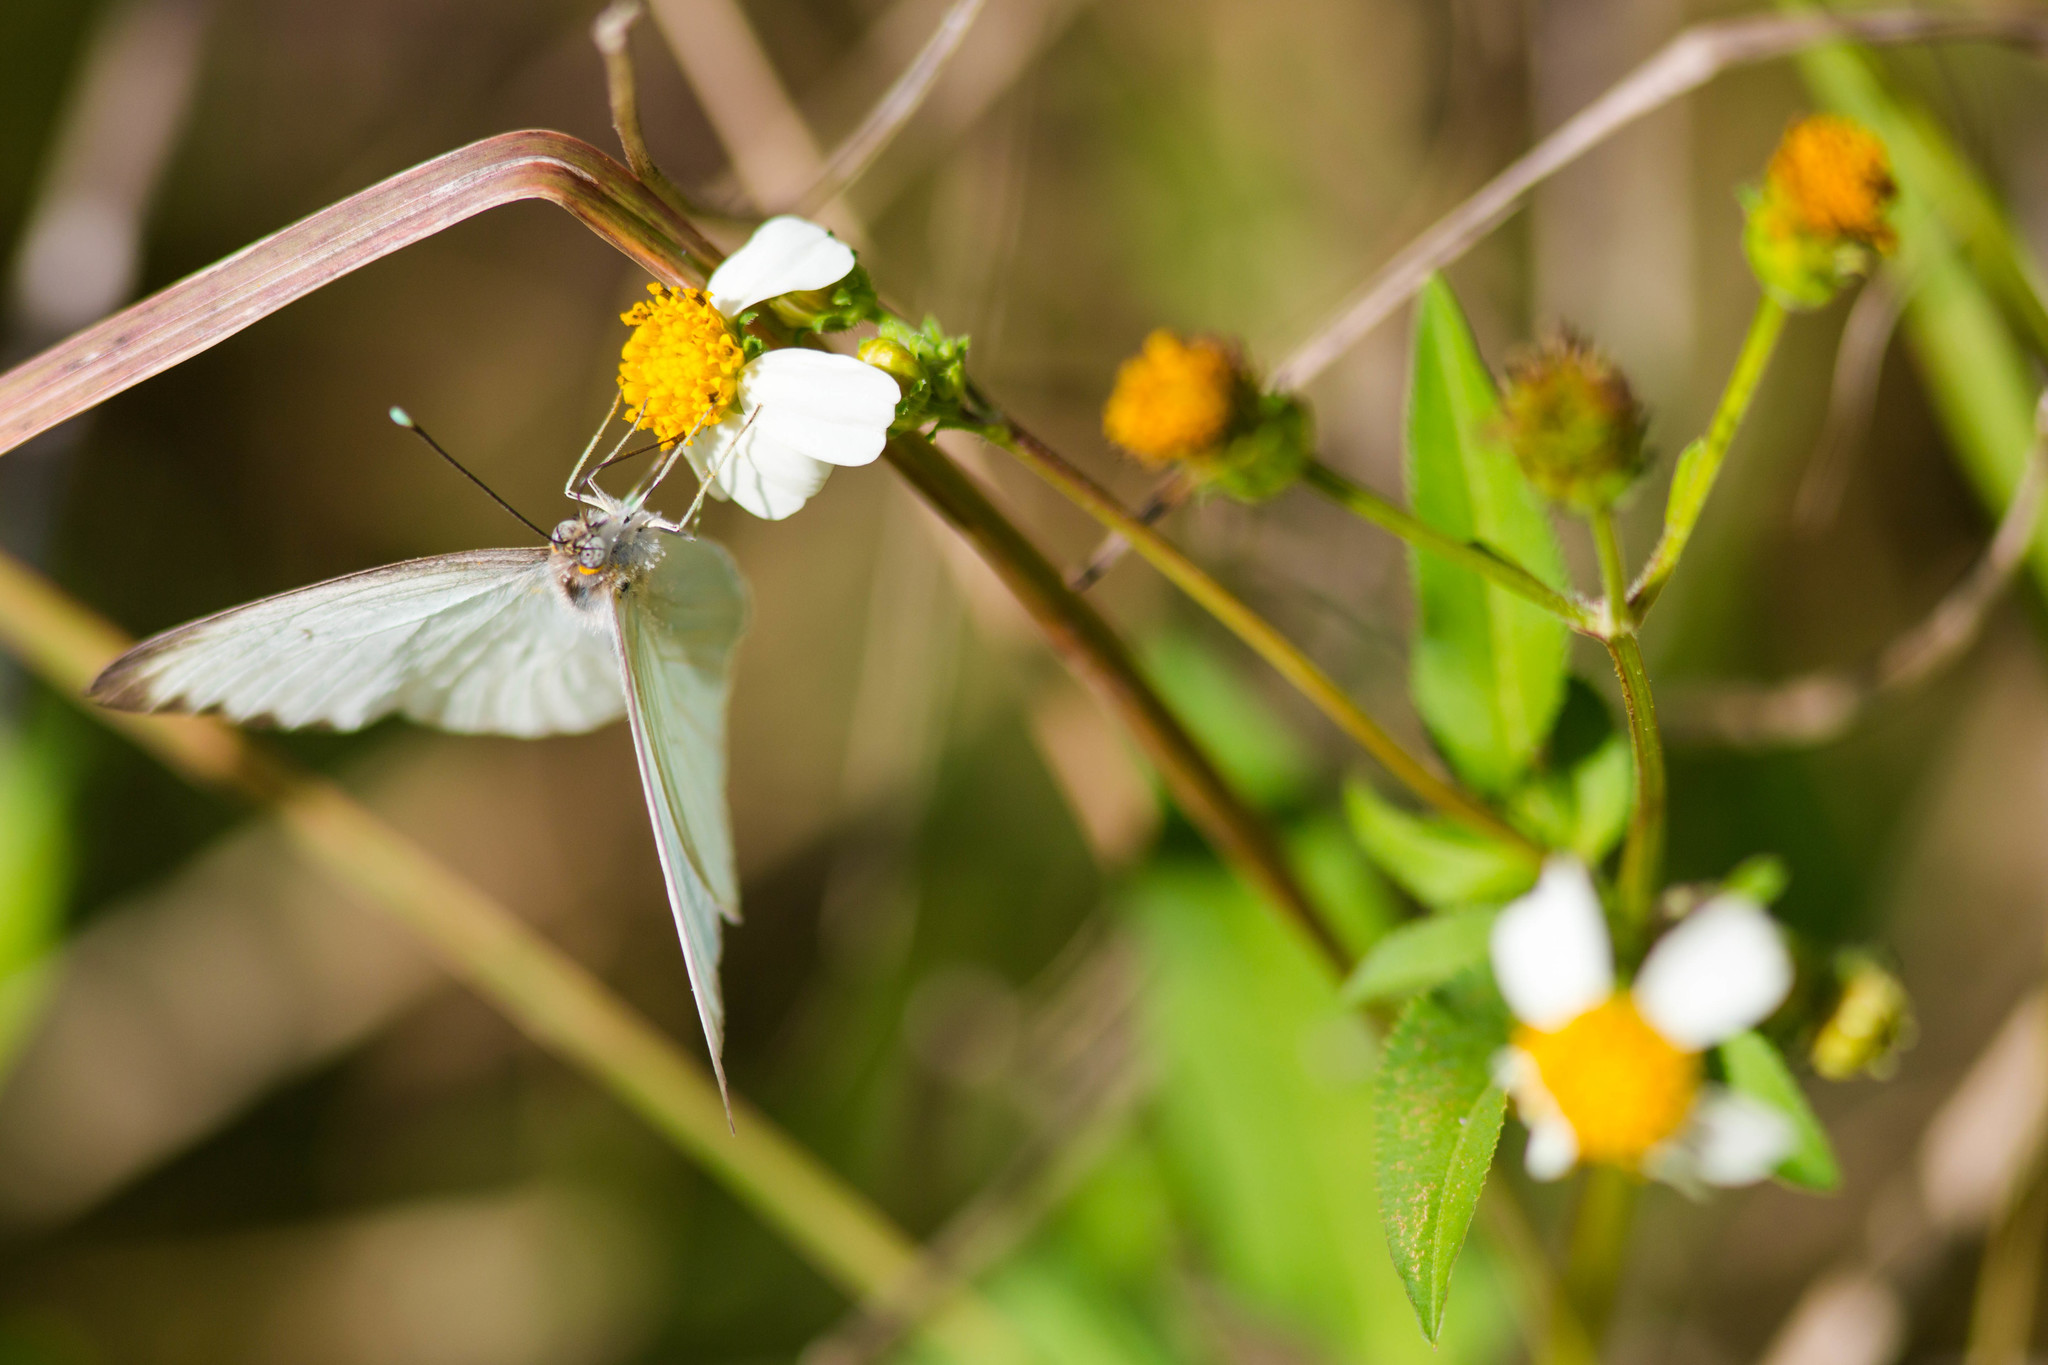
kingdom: Animalia
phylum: Arthropoda
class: Insecta
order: Lepidoptera
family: Pieridae
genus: Ascia
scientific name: Ascia monuste
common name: Great southern white
